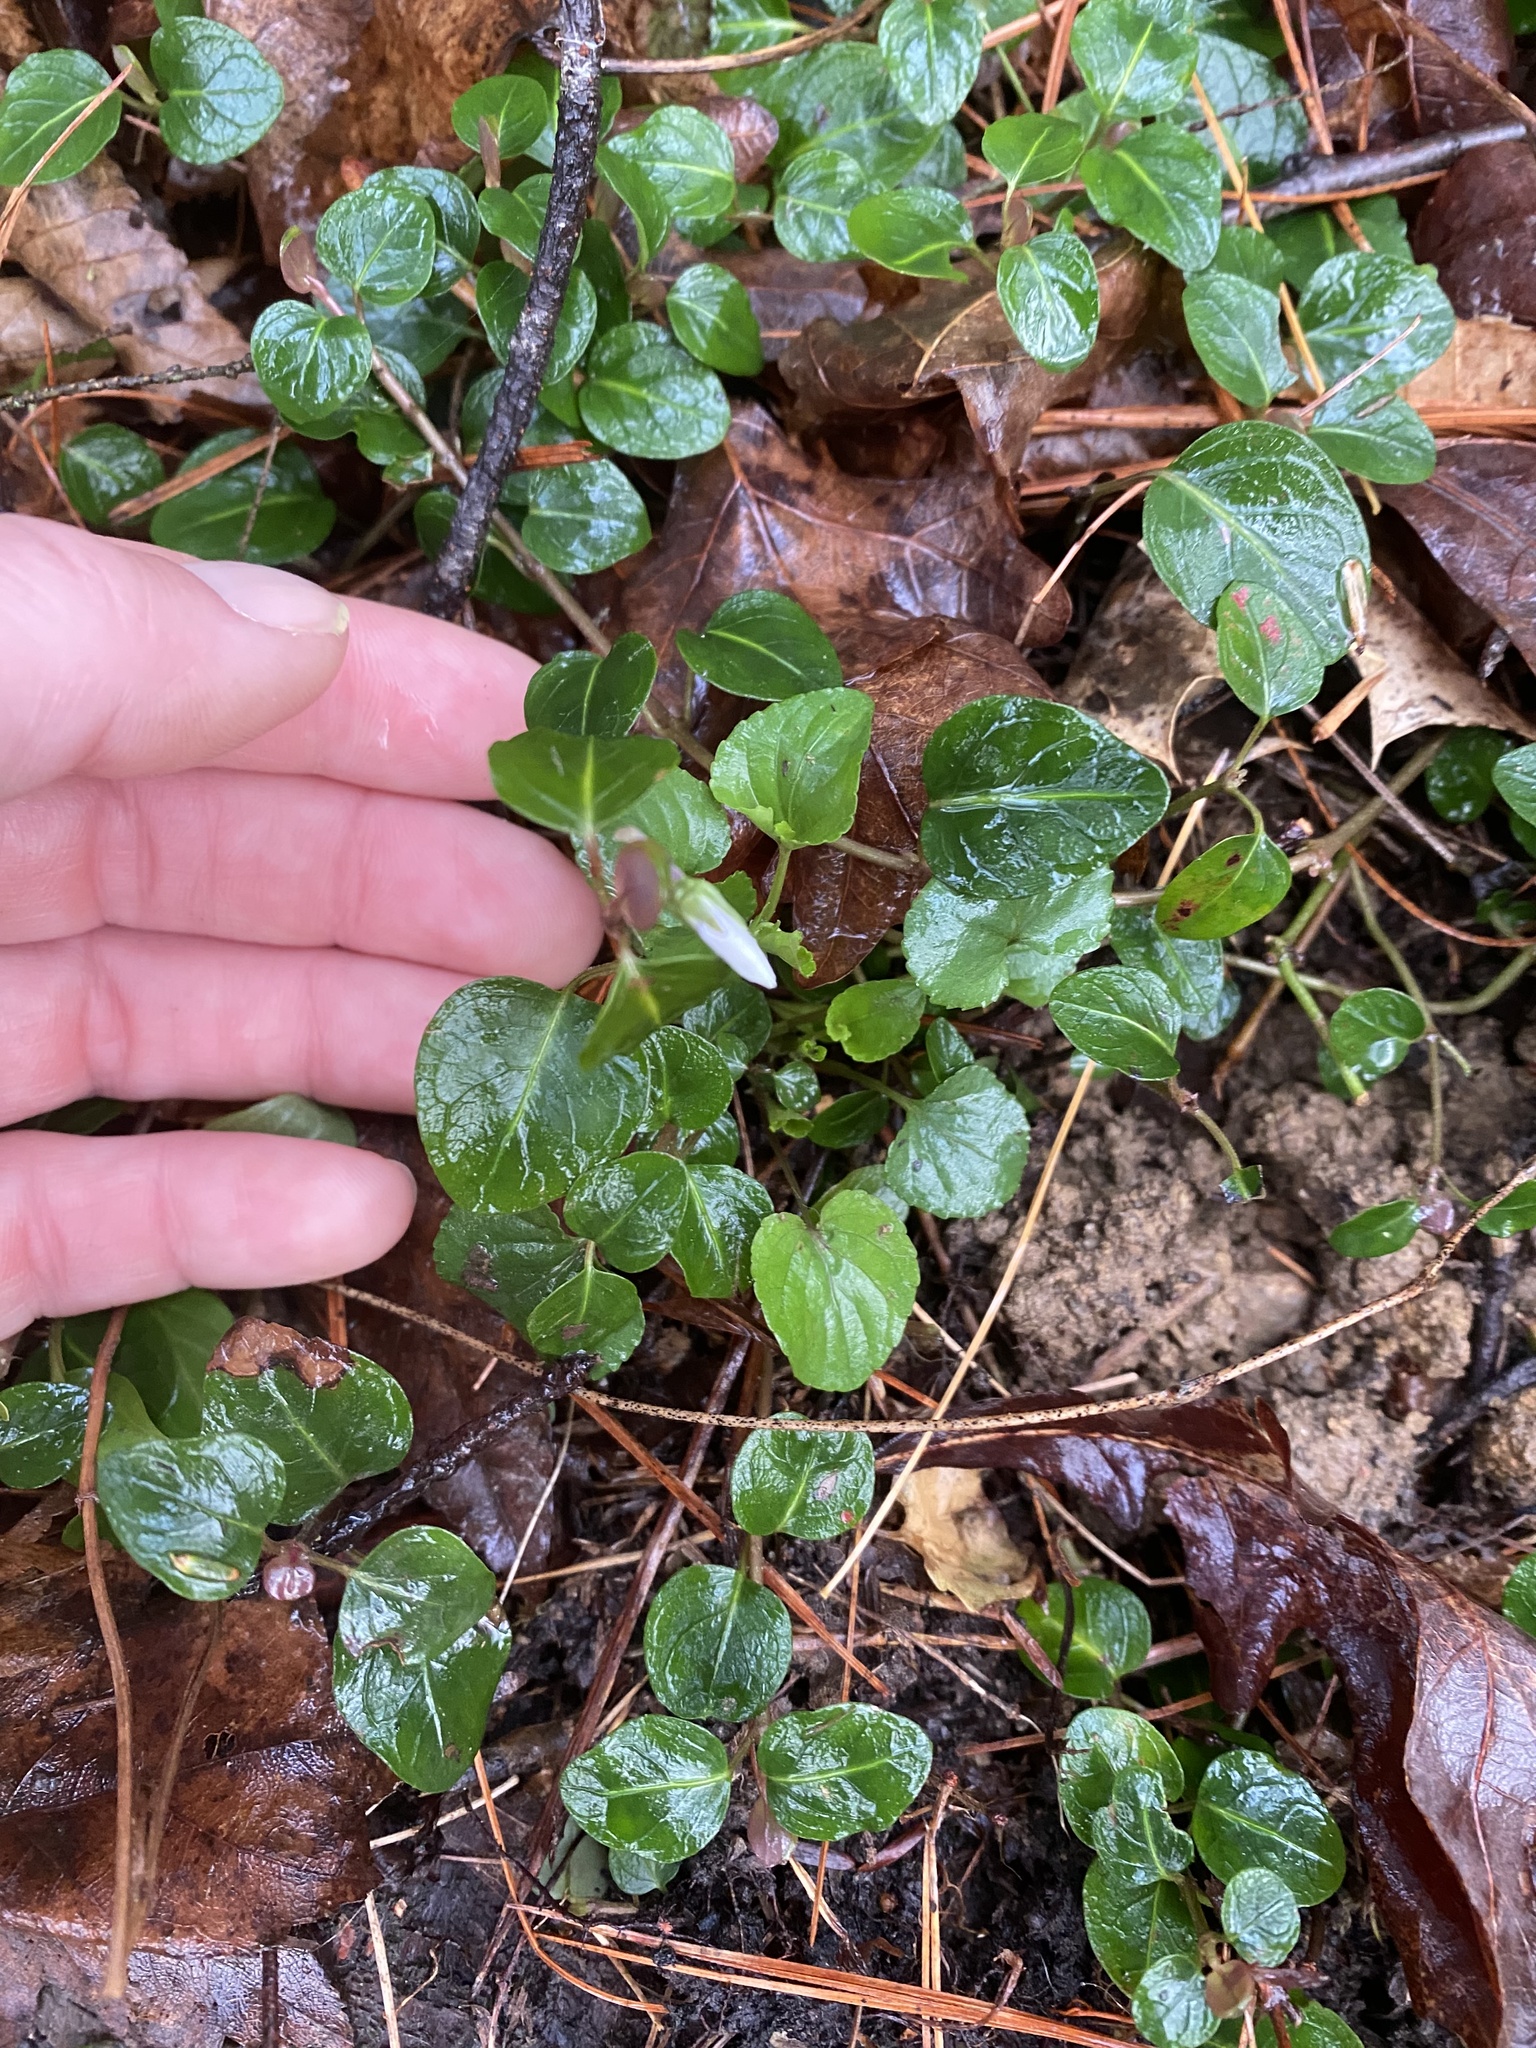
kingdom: Plantae
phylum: Tracheophyta
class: Magnoliopsida
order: Gentianales
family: Rubiaceae
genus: Mitchella
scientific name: Mitchella repens
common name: Partridge-berry
